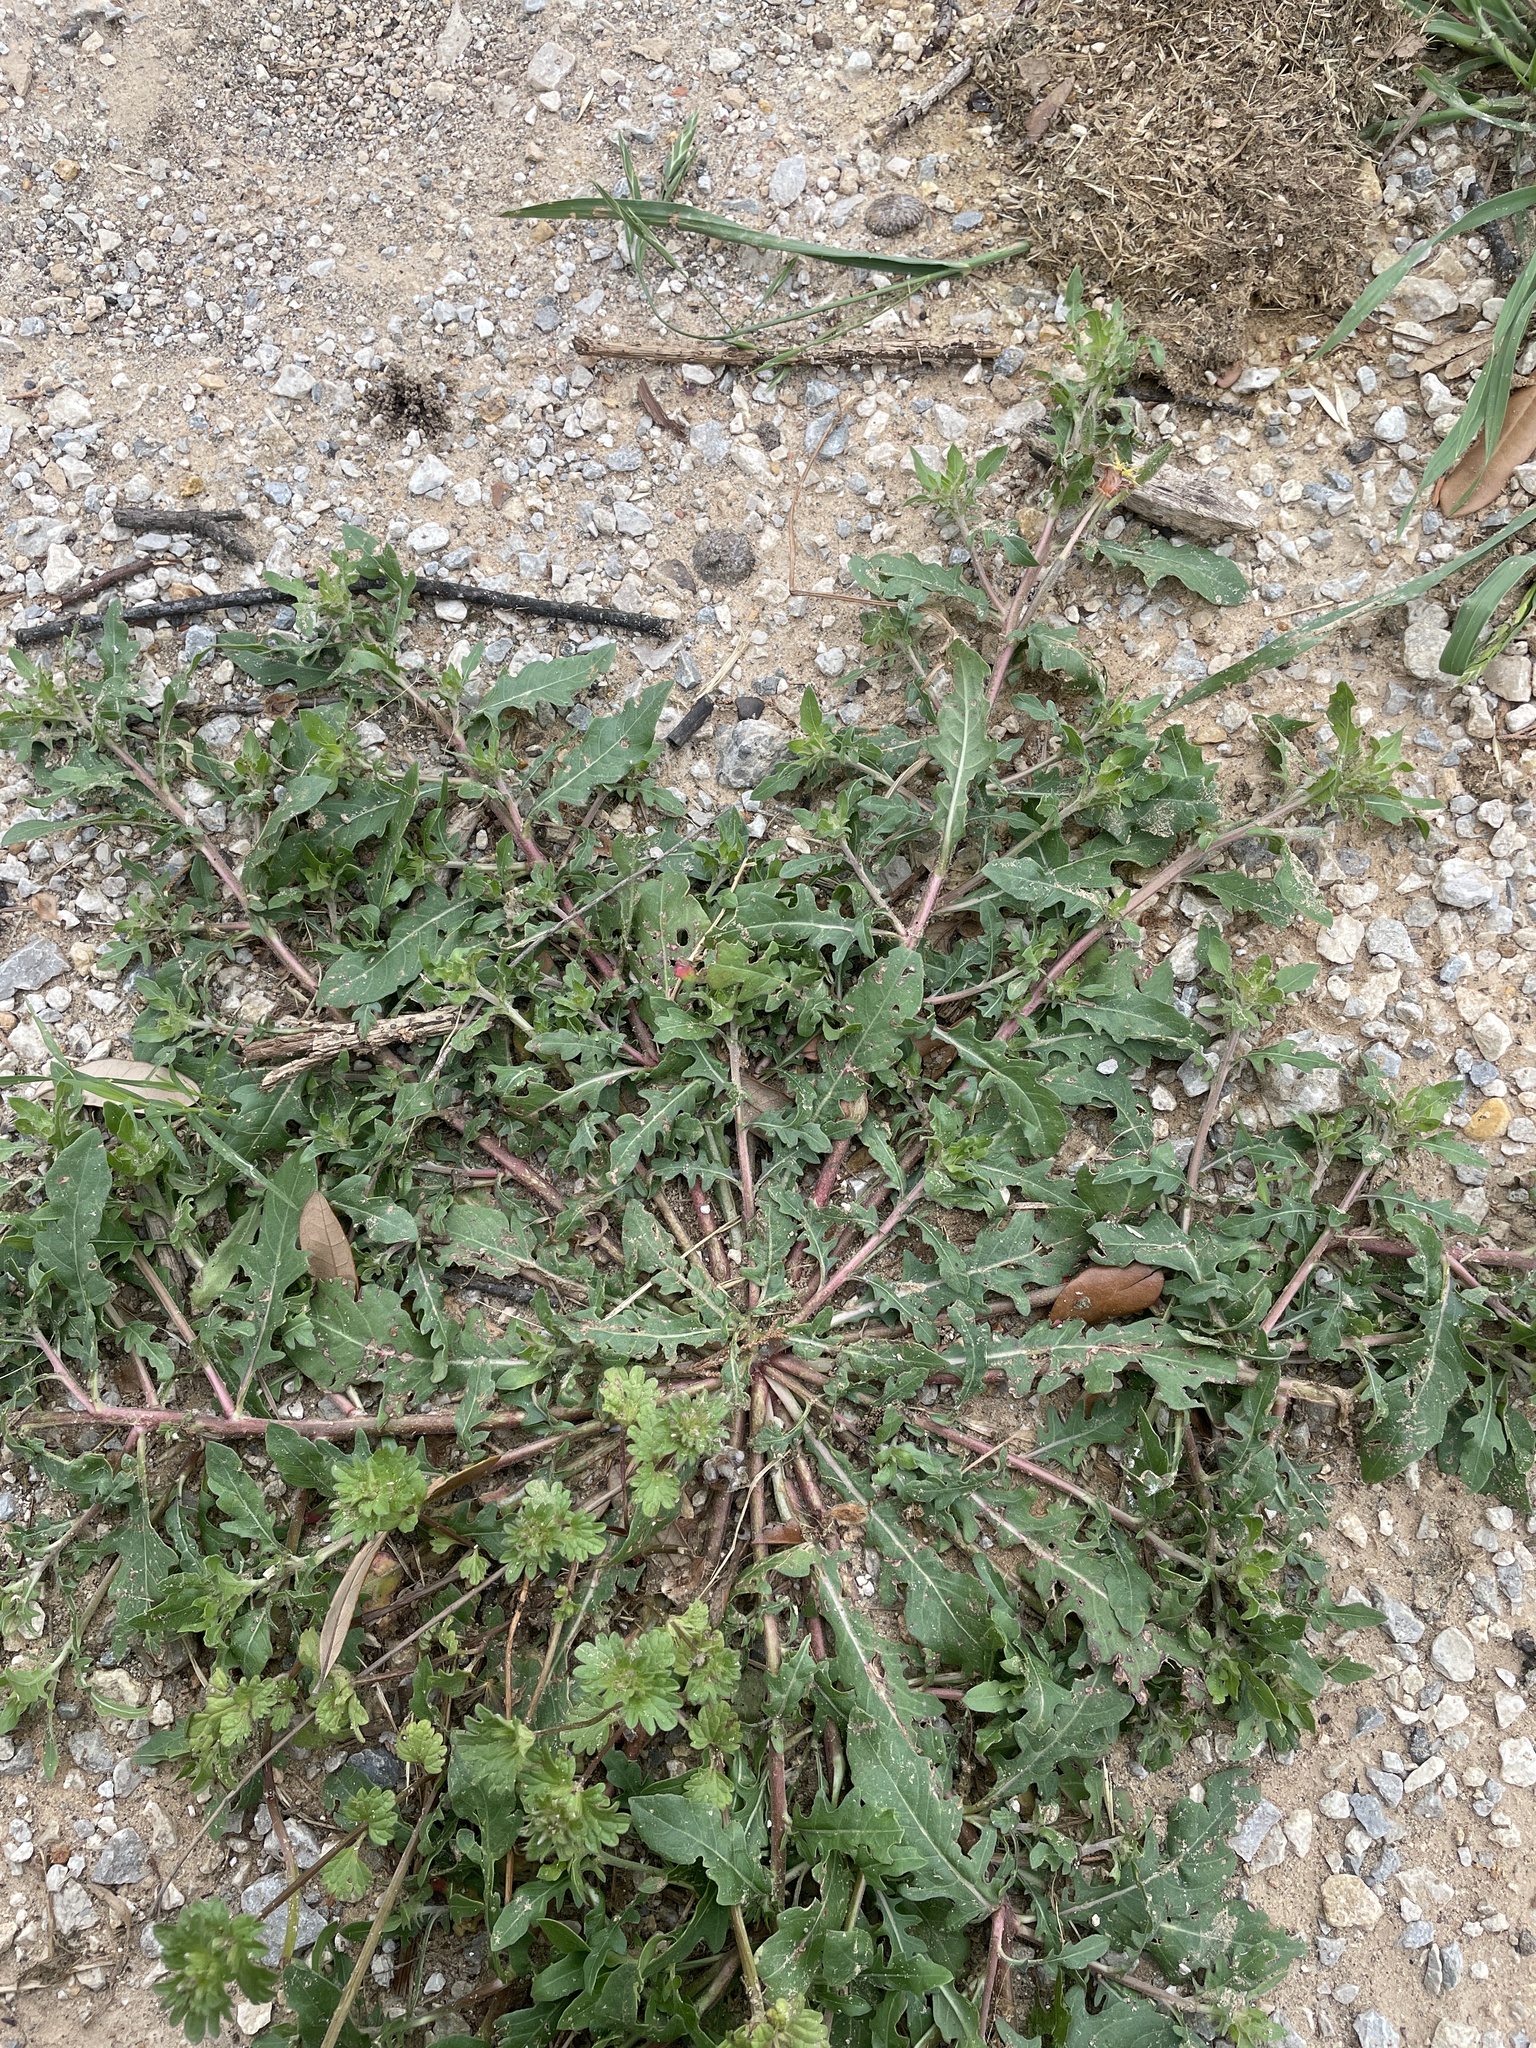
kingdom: Plantae
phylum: Tracheophyta
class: Magnoliopsida
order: Myrtales
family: Onagraceae
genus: Oenothera
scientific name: Oenothera laciniata
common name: Cut-leaved evening-primrose
